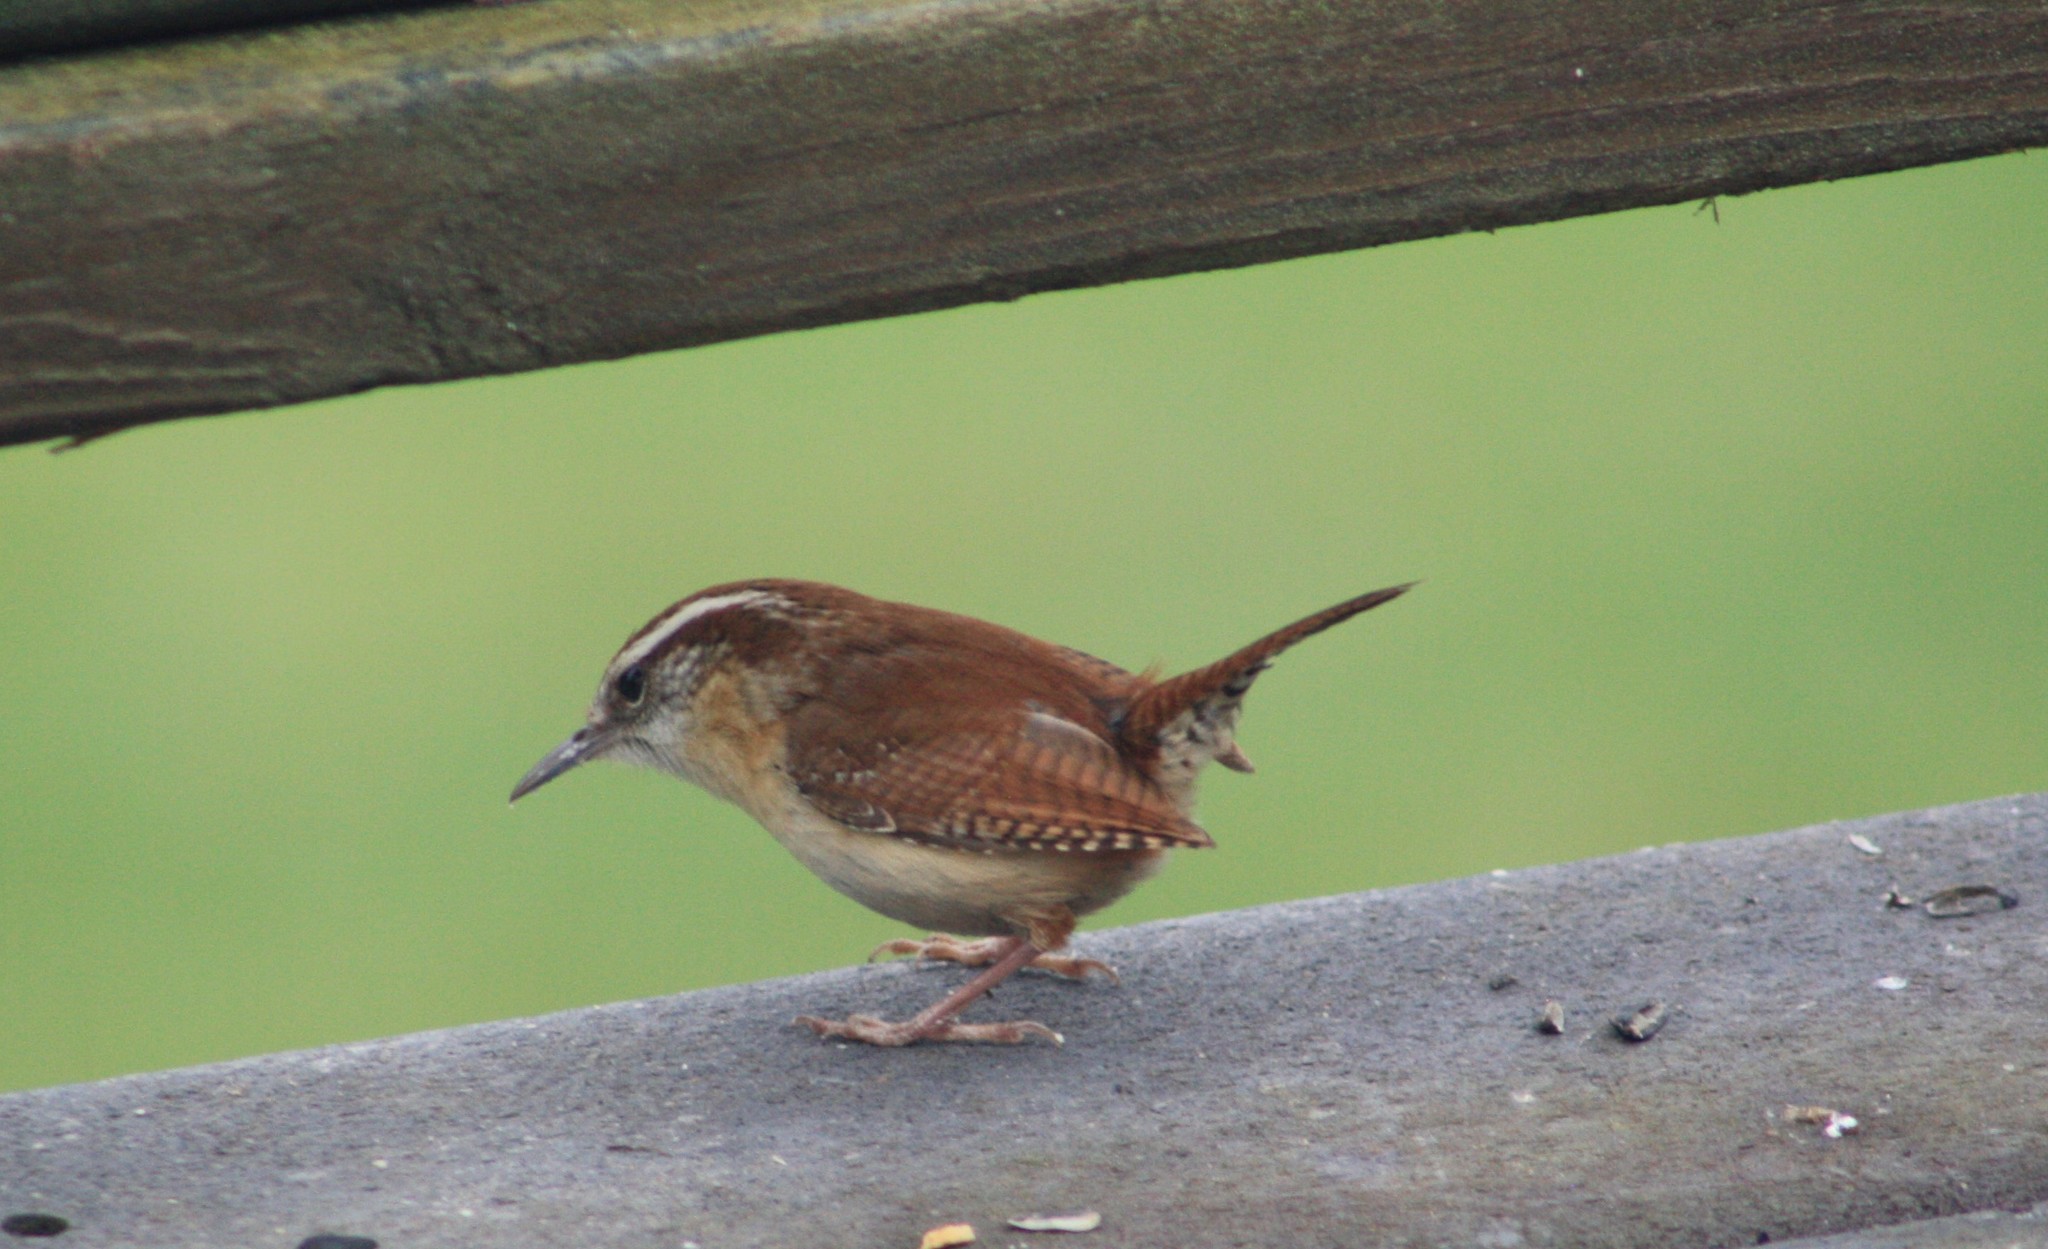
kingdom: Animalia
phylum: Chordata
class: Aves
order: Passeriformes
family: Troglodytidae
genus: Thryothorus
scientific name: Thryothorus ludovicianus
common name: Carolina wren
